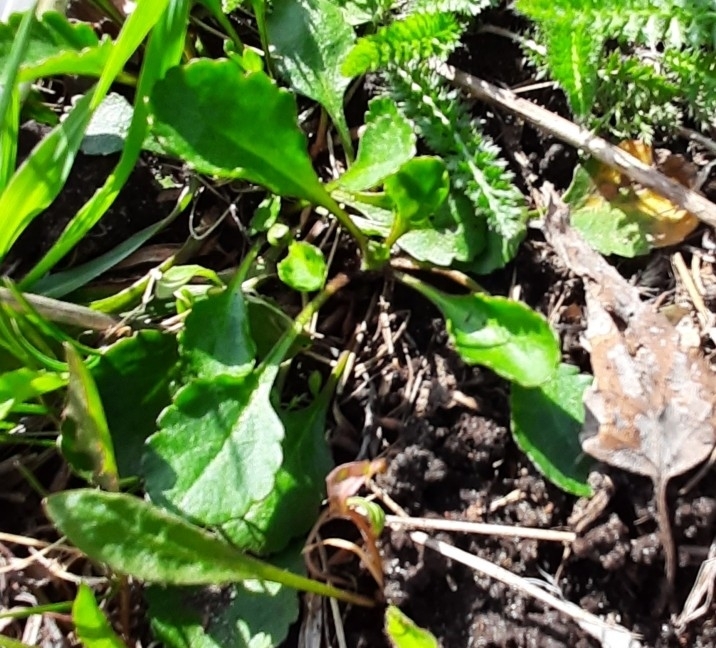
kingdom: Plantae
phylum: Tracheophyta
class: Magnoliopsida
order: Asterales
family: Asteraceae
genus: Leucanthemum
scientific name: Leucanthemum ircutianum
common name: Daisy
